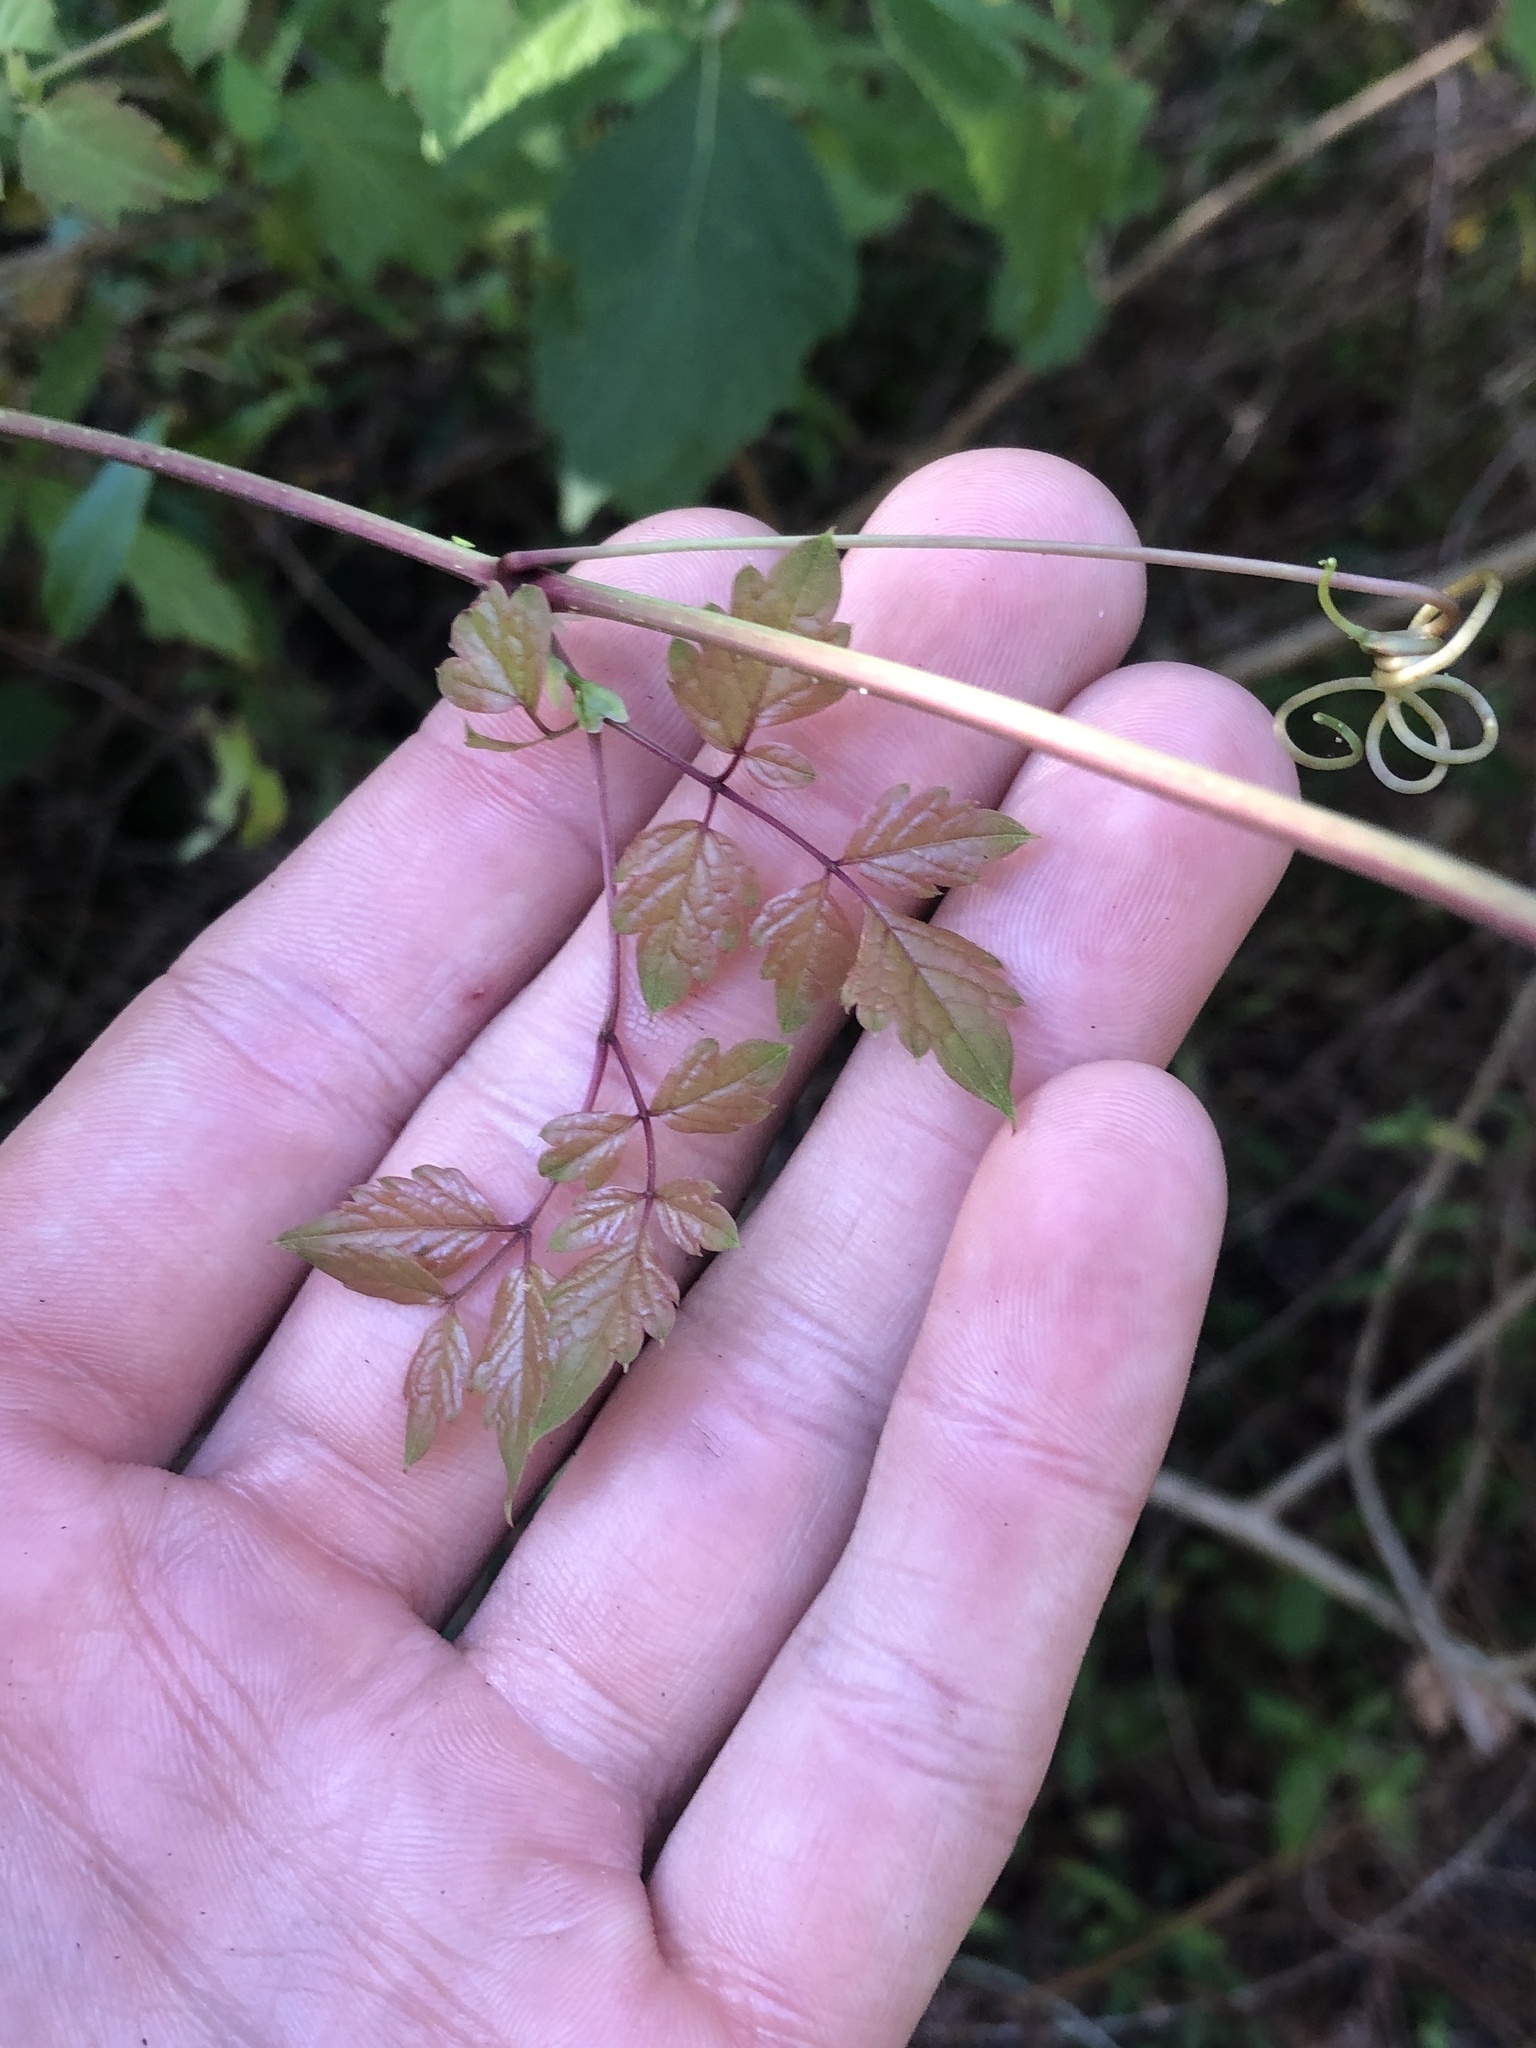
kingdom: Plantae
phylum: Tracheophyta
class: Magnoliopsida
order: Vitales
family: Vitaceae
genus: Nekemias
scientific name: Nekemias arborea
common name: Peppervine
